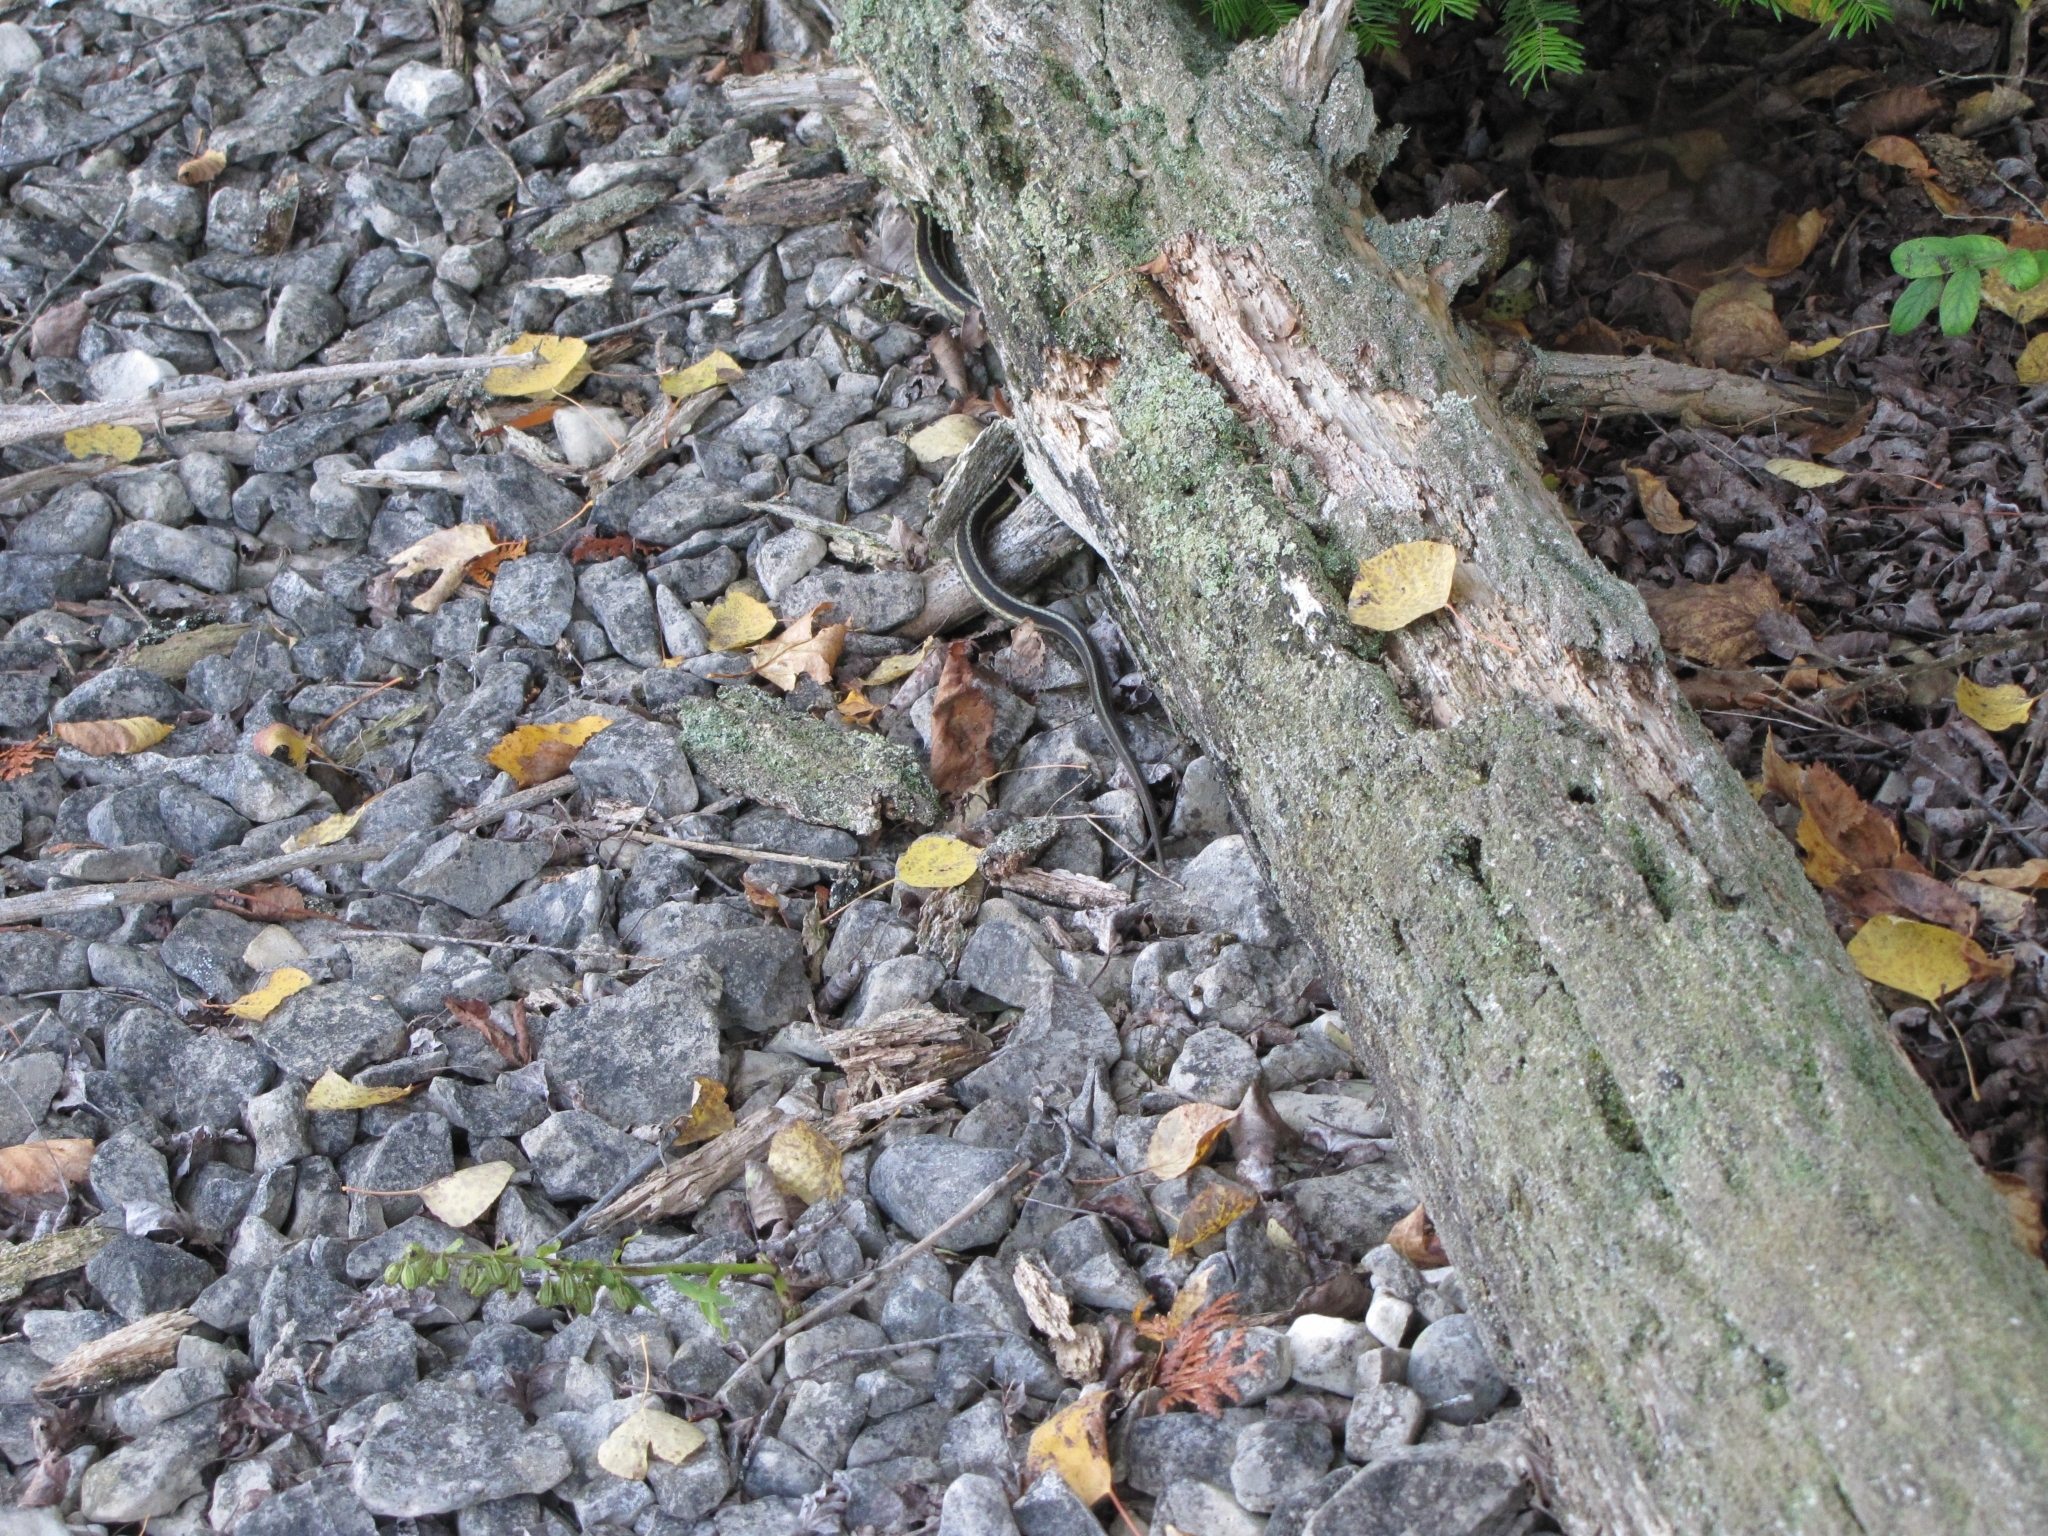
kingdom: Animalia
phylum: Chordata
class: Squamata
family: Colubridae
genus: Thamnophis
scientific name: Thamnophis sirtalis
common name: Common garter snake
